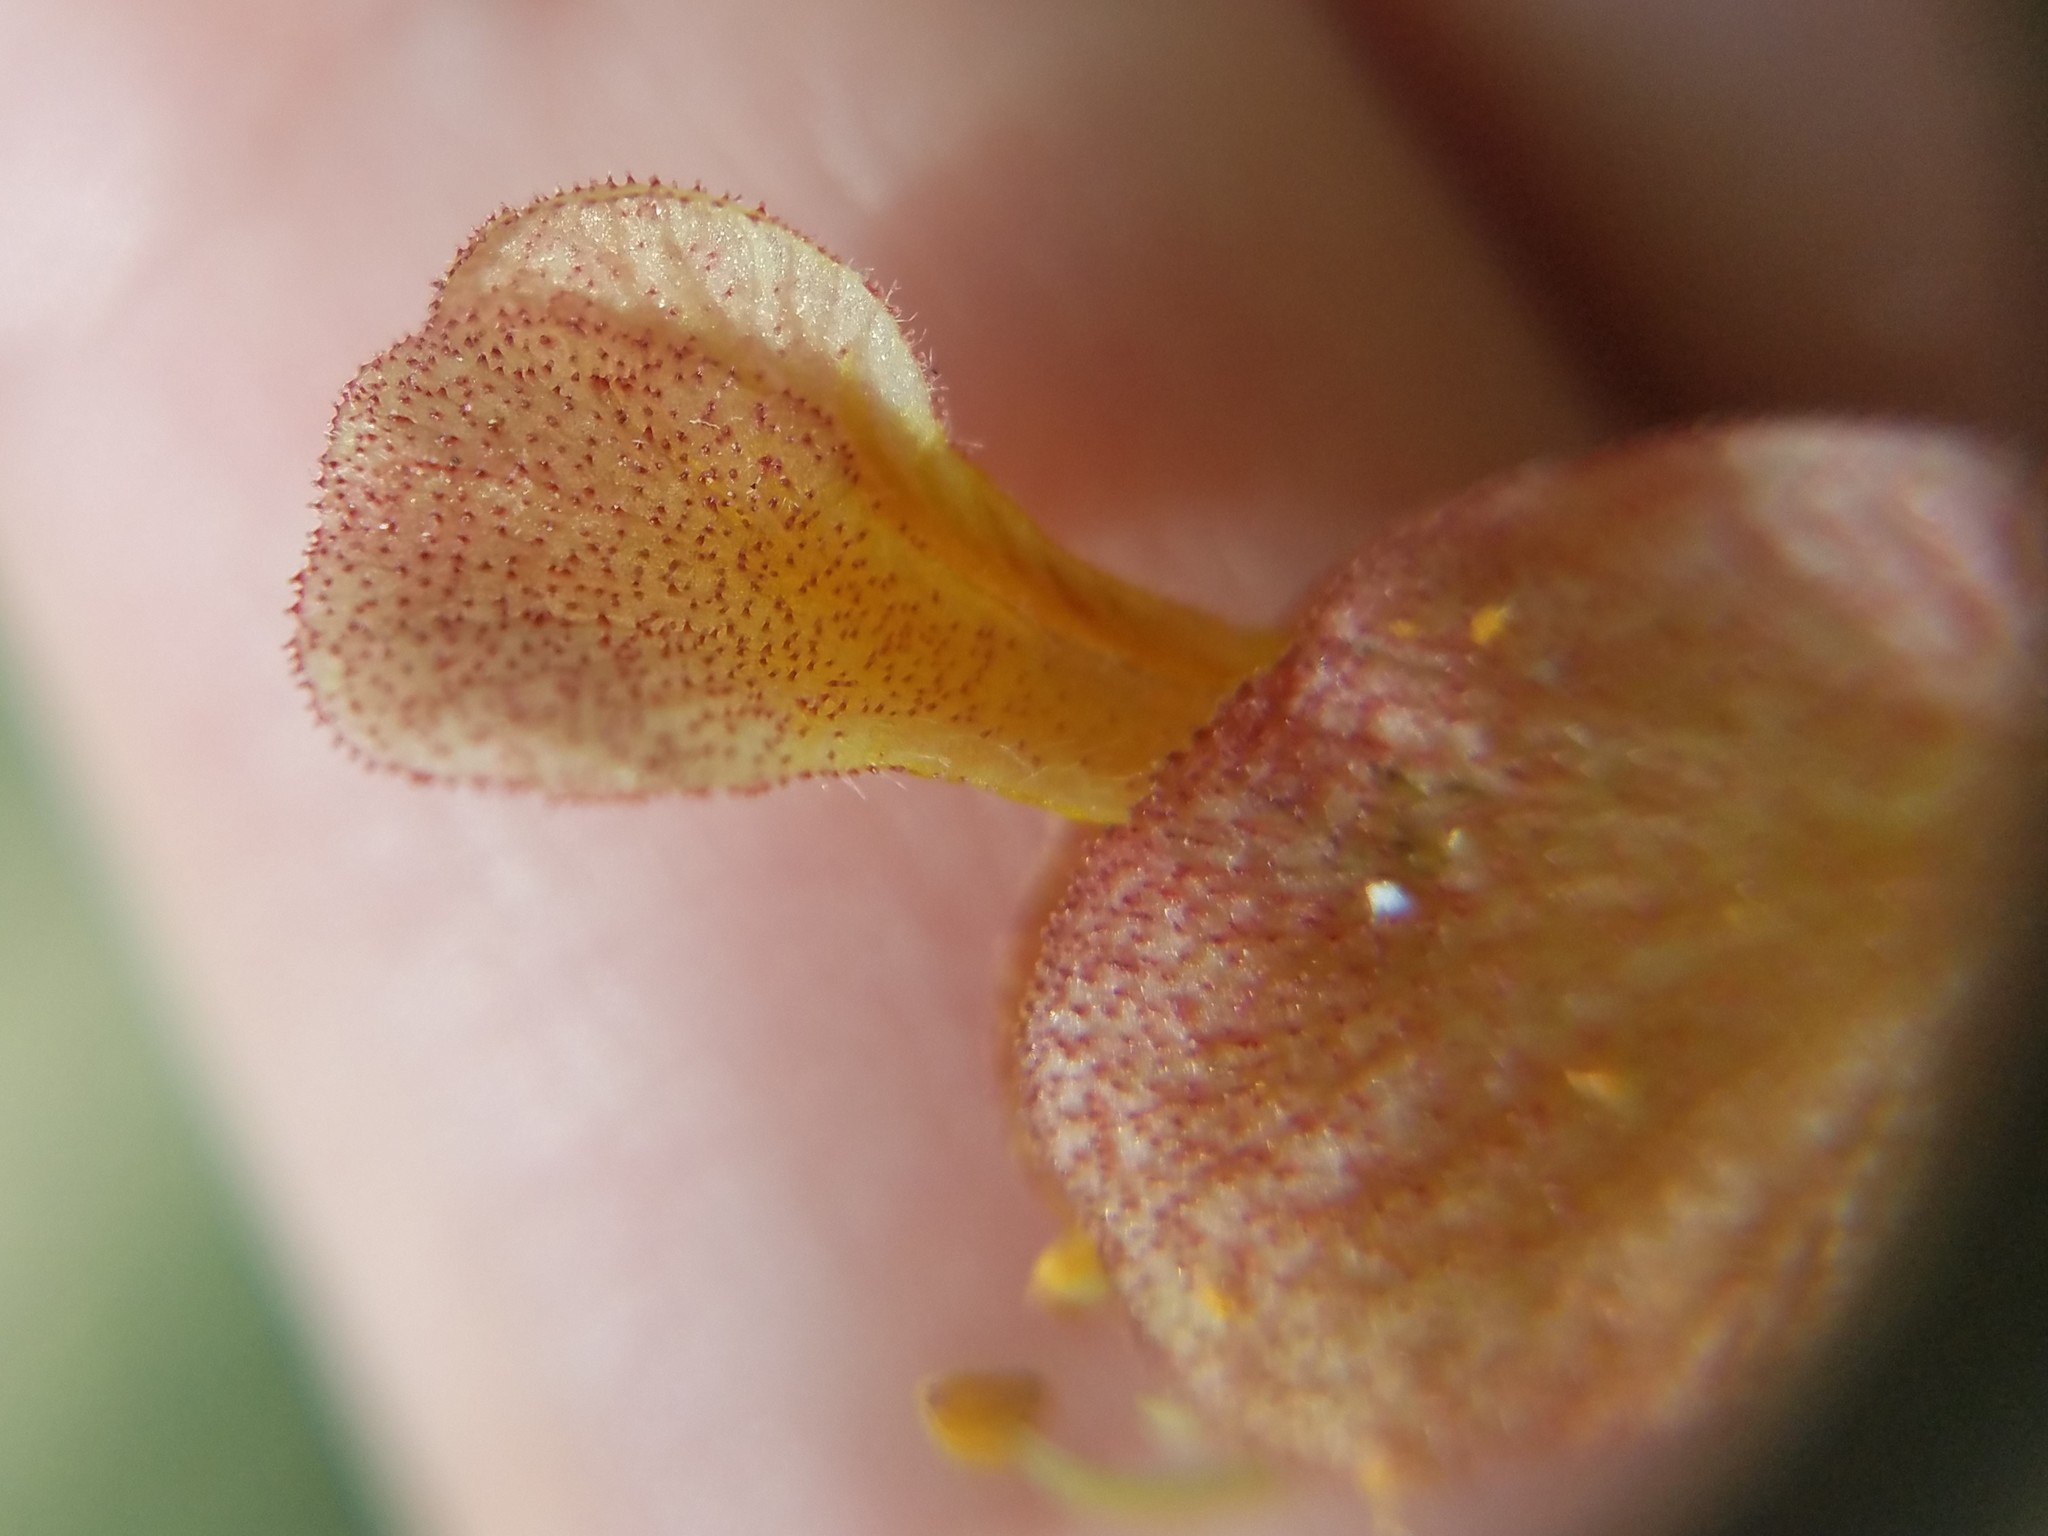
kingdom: Plantae
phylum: Tracheophyta
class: Magnoliopsida
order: Sapindales
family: Sapindaceae
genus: Aesculus
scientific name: Aesculus pavia
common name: Red buckeye
